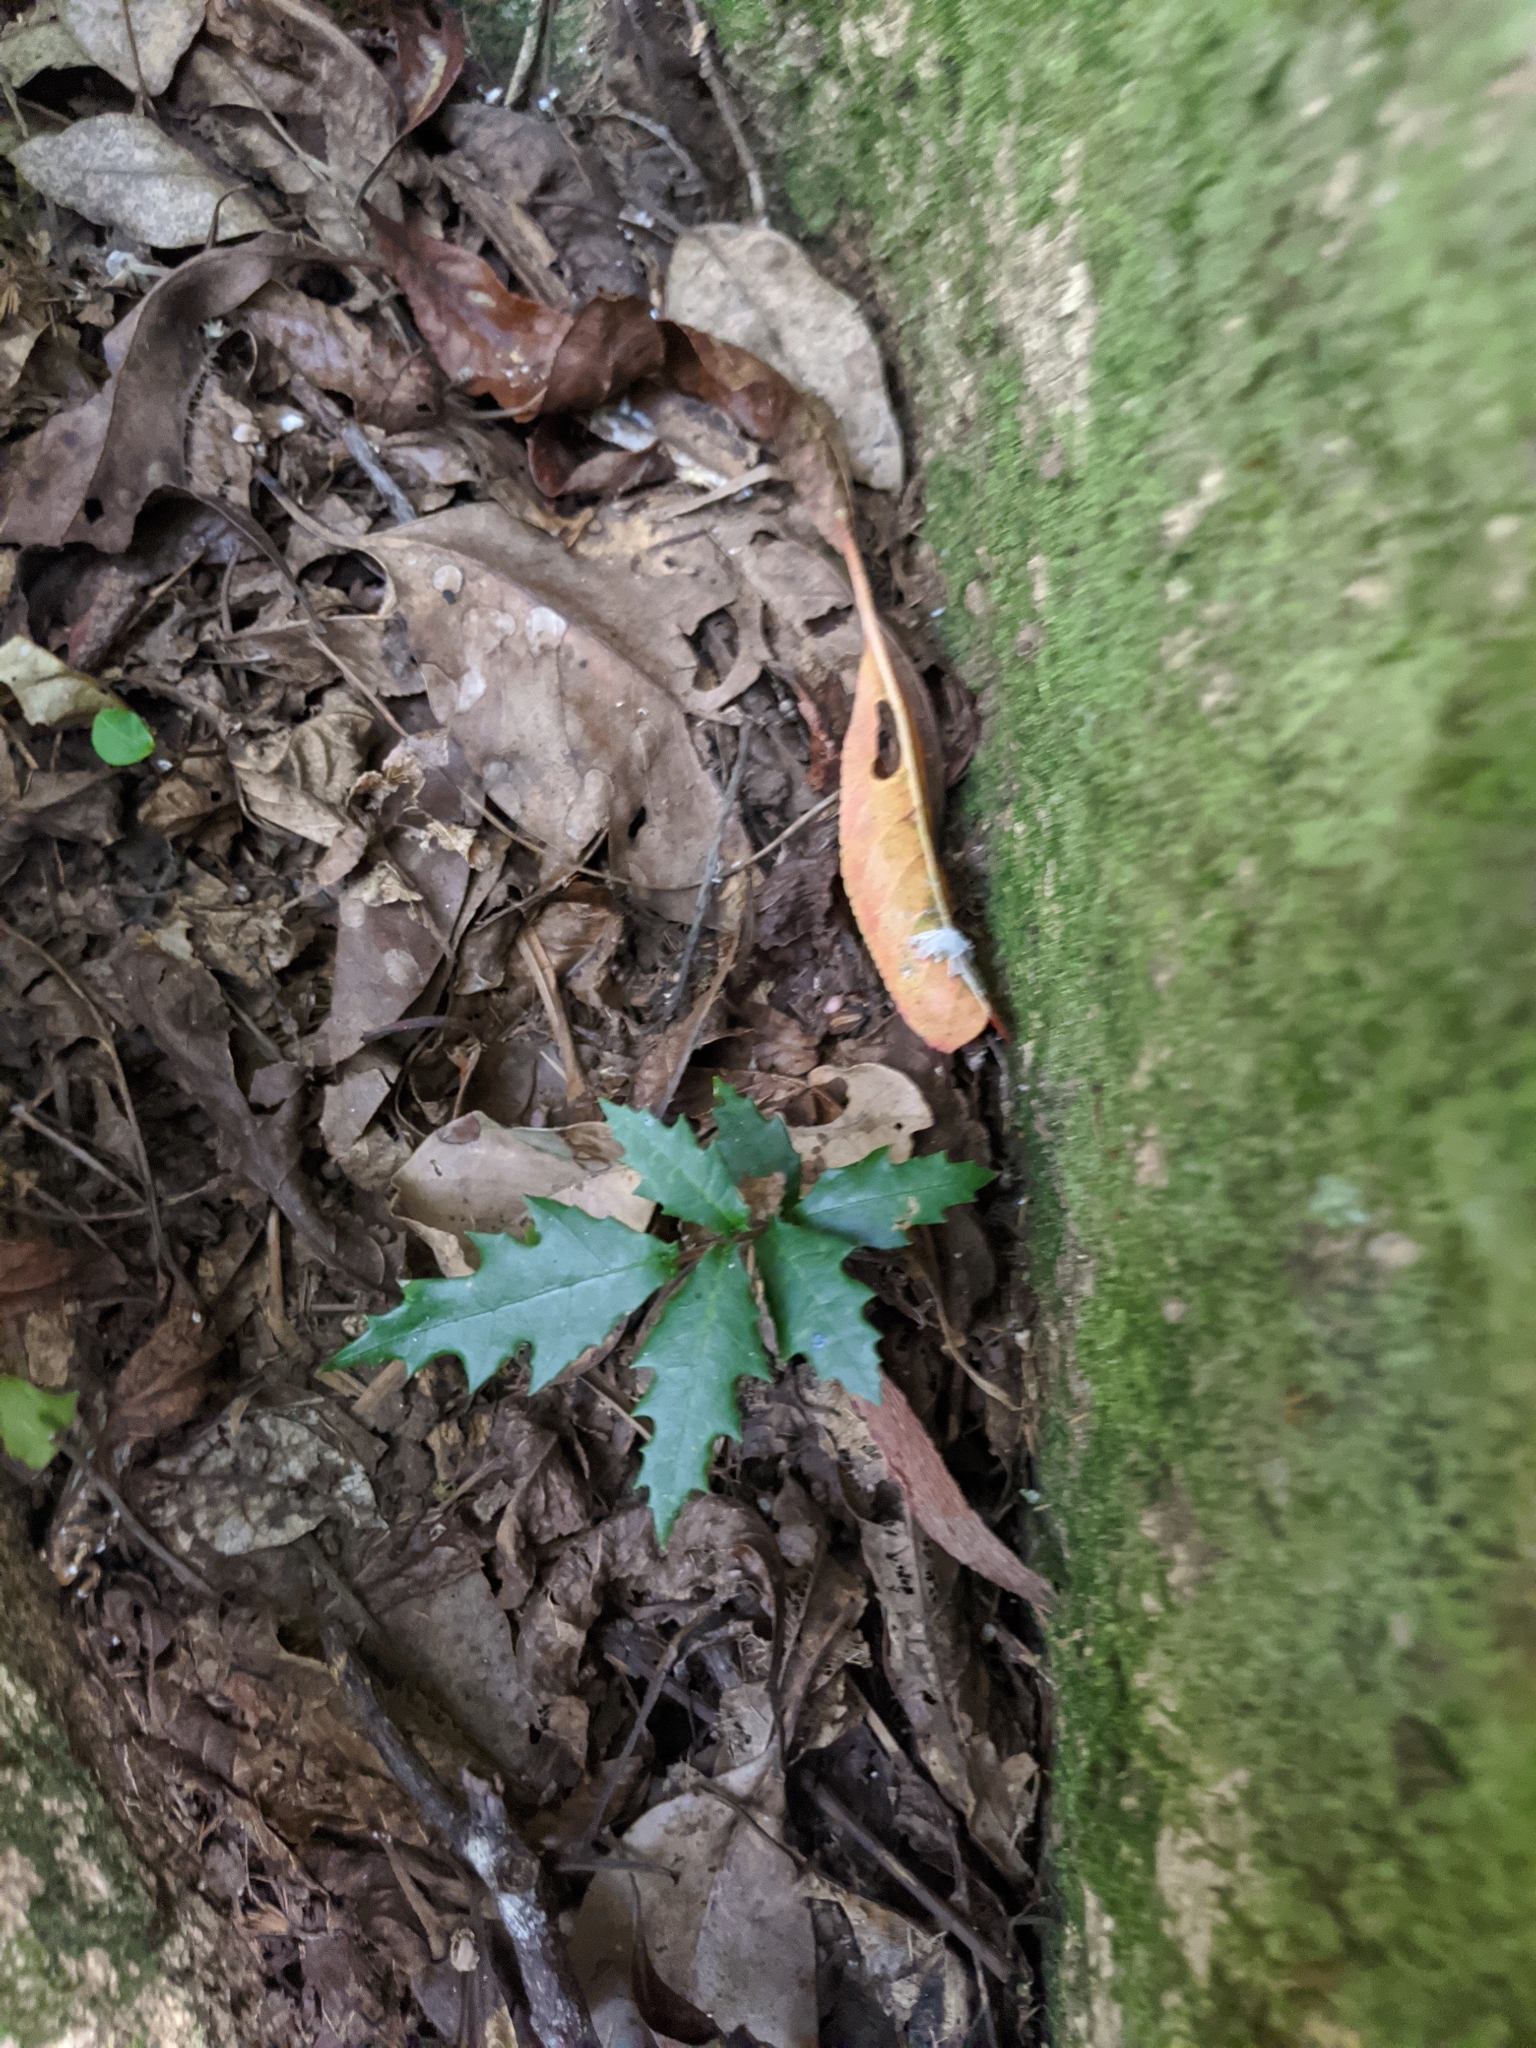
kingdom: Plantae
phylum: Tracheophyta
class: Magnoliopsida
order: Rosales
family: Moraceae
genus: Malaisia
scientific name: Malaisia scandens
